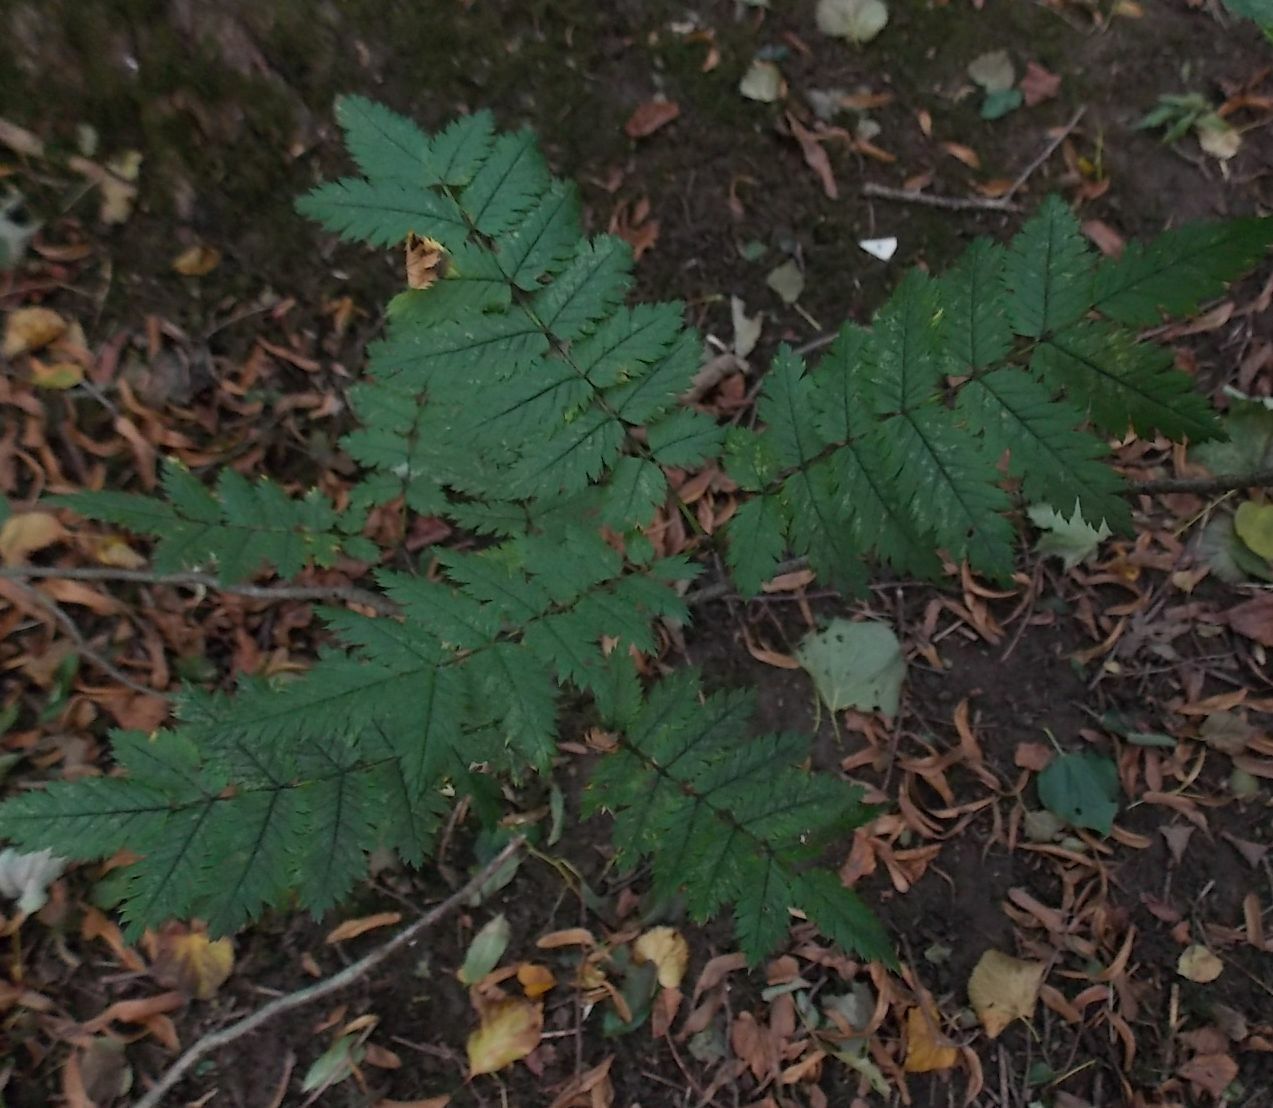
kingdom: Plantae
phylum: Tracheophyta
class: Magnoliopsida
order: Rosales
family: Rosaceae
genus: Sorbus
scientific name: Sorbus aucuparia
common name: Rowan
